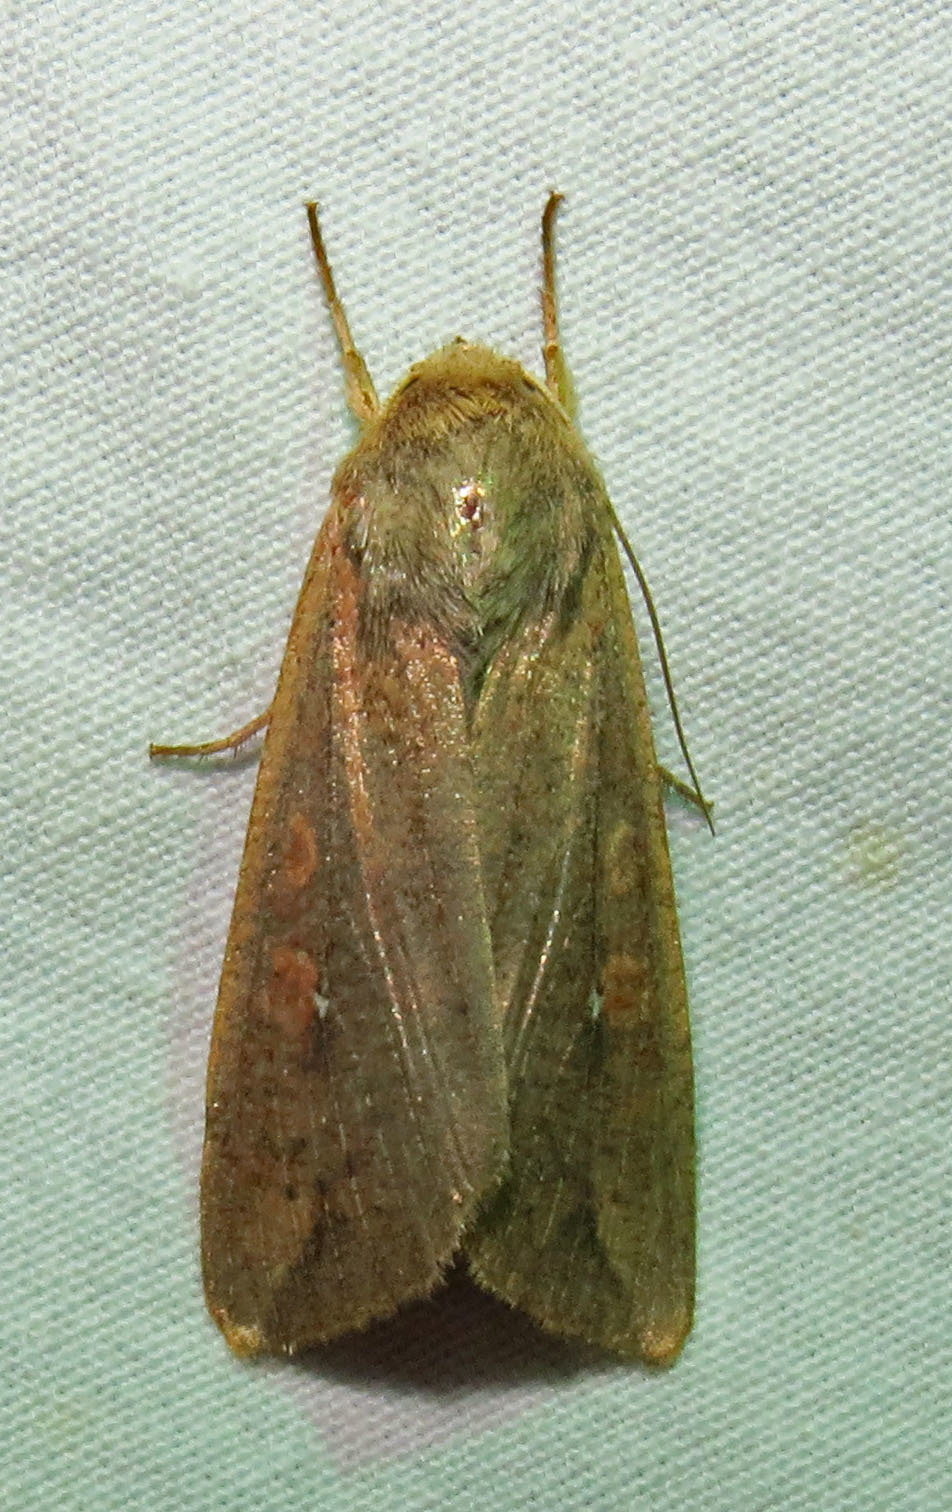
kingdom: Animalia
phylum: Arthropoda
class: Insecta
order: Lepidoptera
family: Noctuidae
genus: Mythimna
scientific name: Mythimna unipuncta
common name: White-speck
